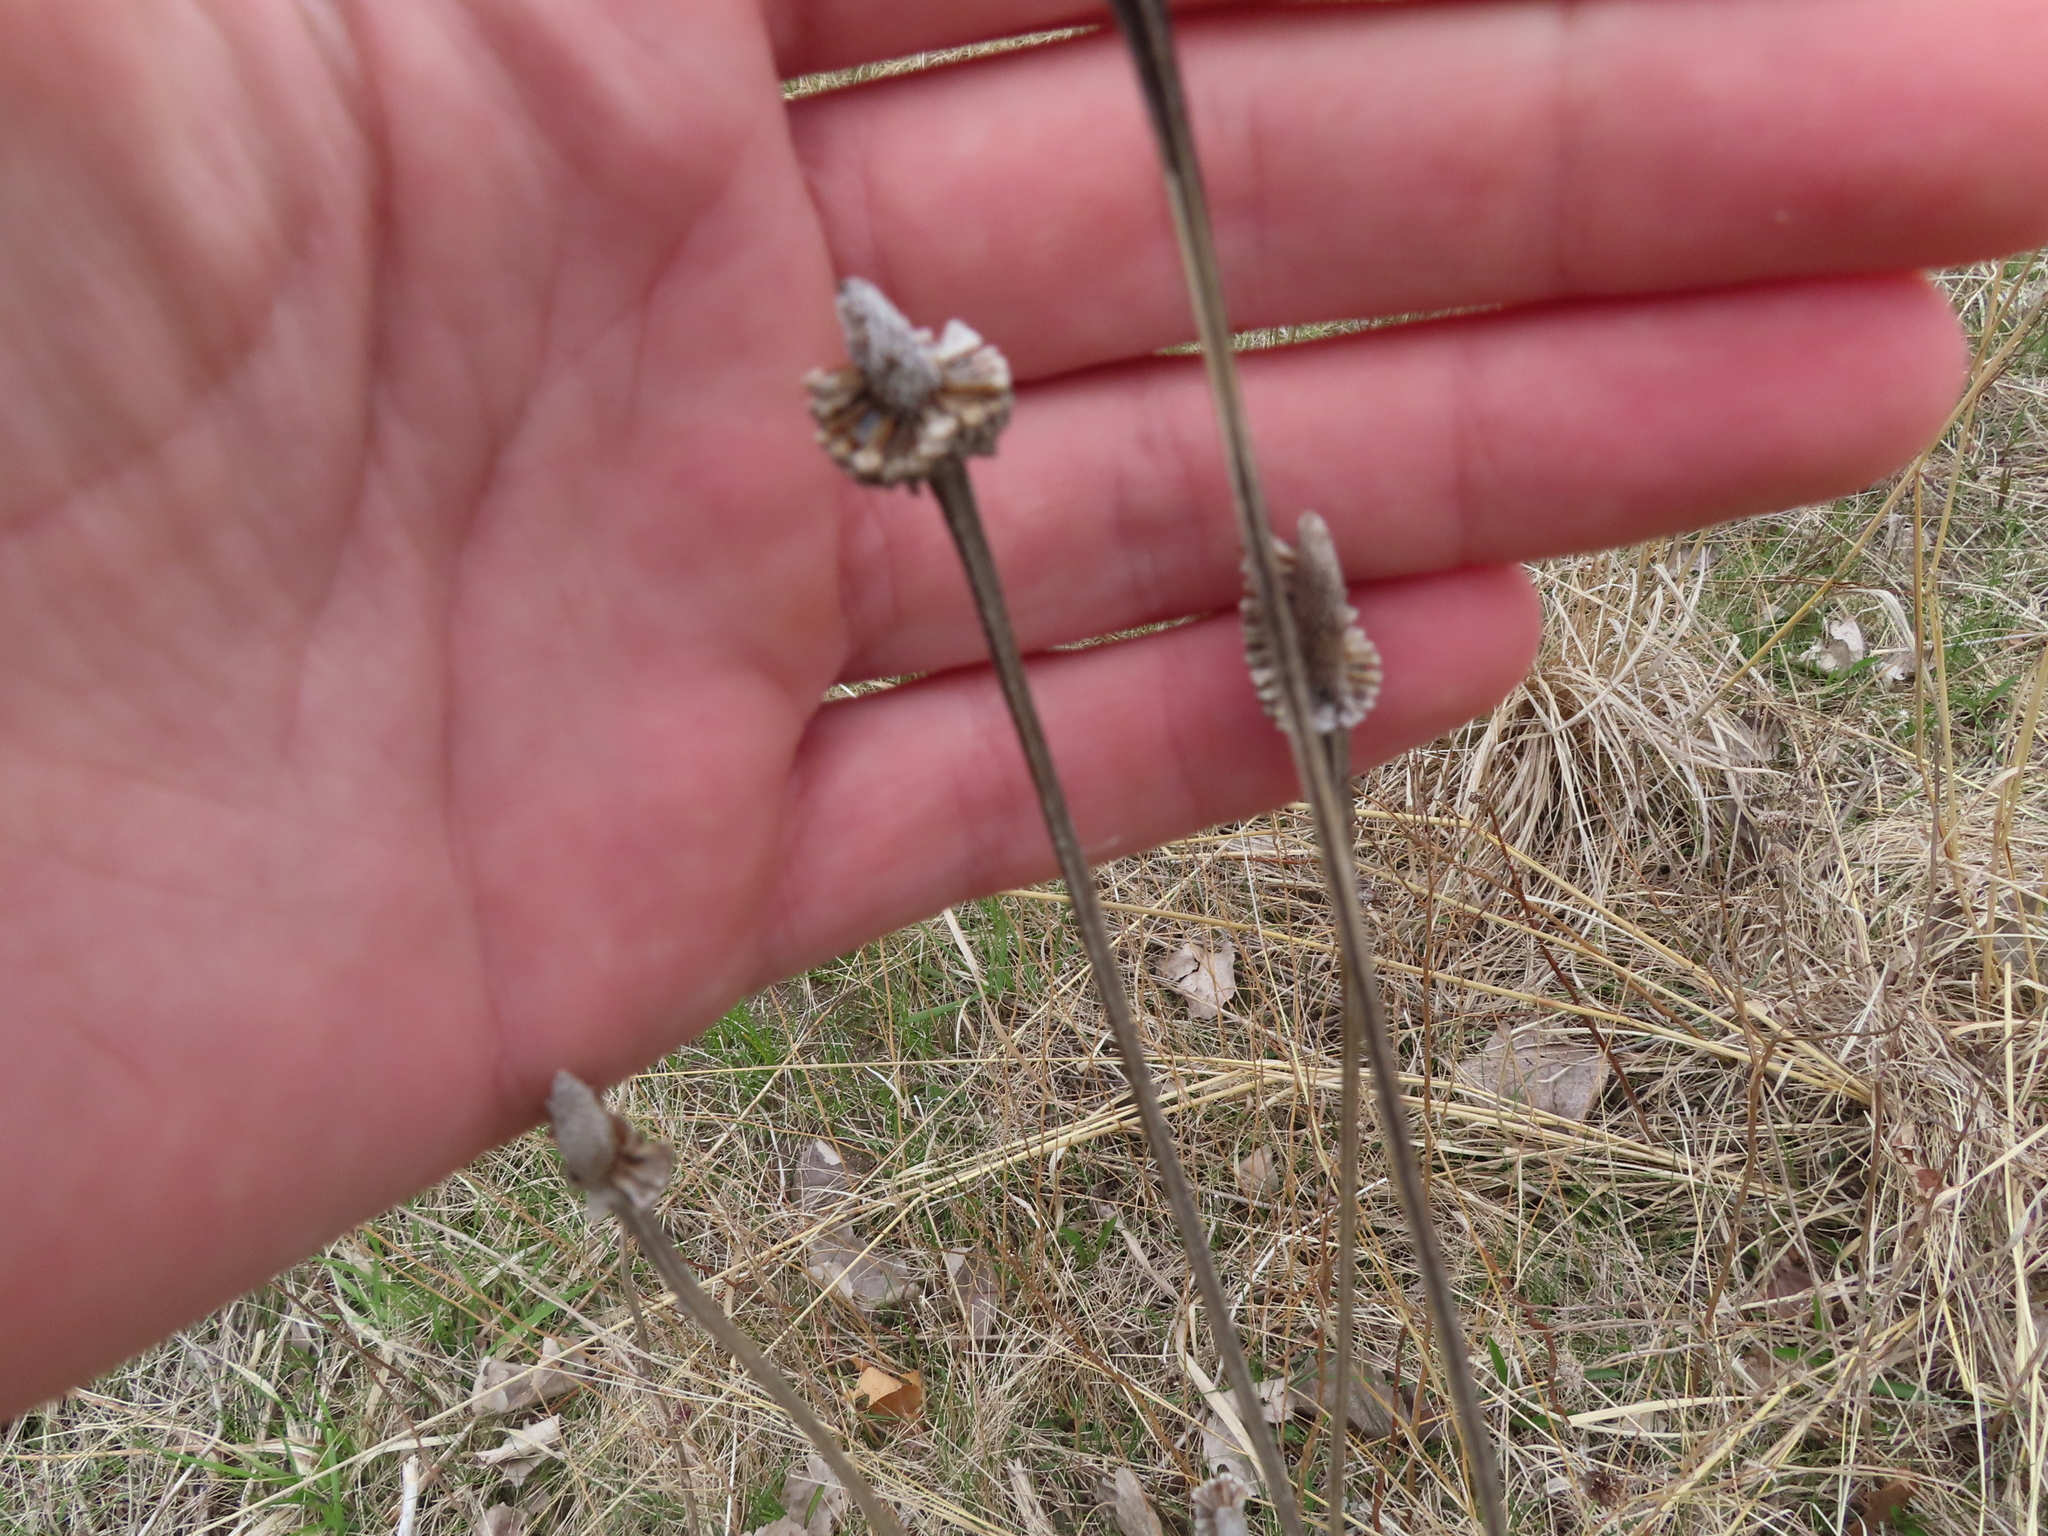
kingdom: Plantae
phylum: Tracheophyta
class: Magnoliopsida
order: Asterales
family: Asteraceae
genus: Ratibida
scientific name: Ratibida pinnata
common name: Drooping prairie-coneflower
